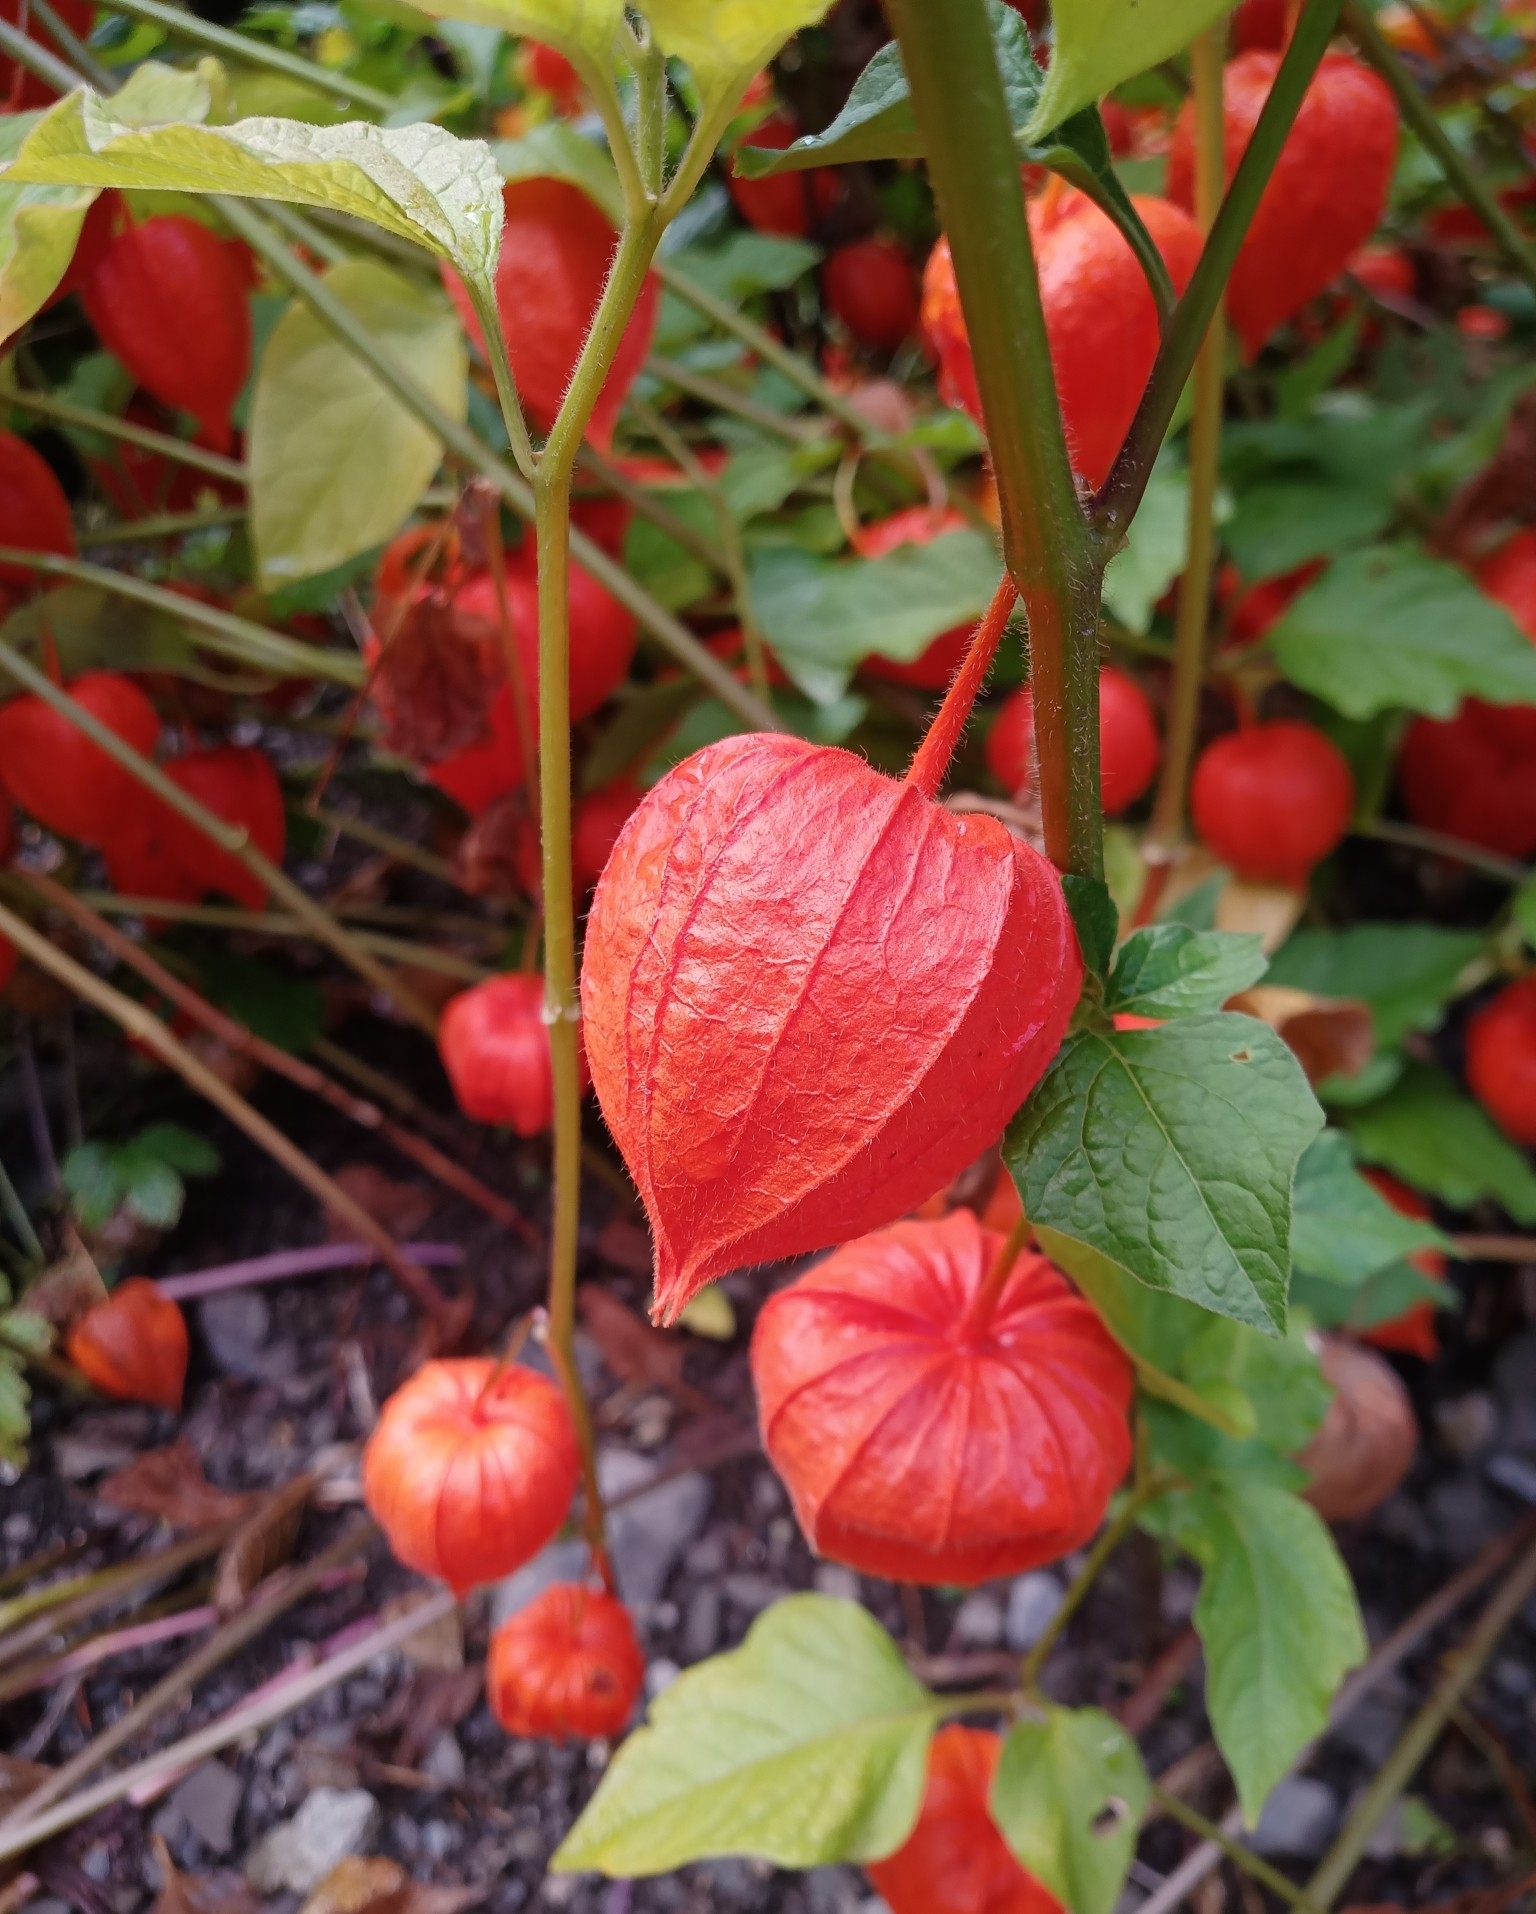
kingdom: Plantae
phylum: Tracheophyta
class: Magnoliopsida
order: Solanales
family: Solanaceae
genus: Alkekengi
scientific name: Alkekengi officinarum
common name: Japanese-lantern
